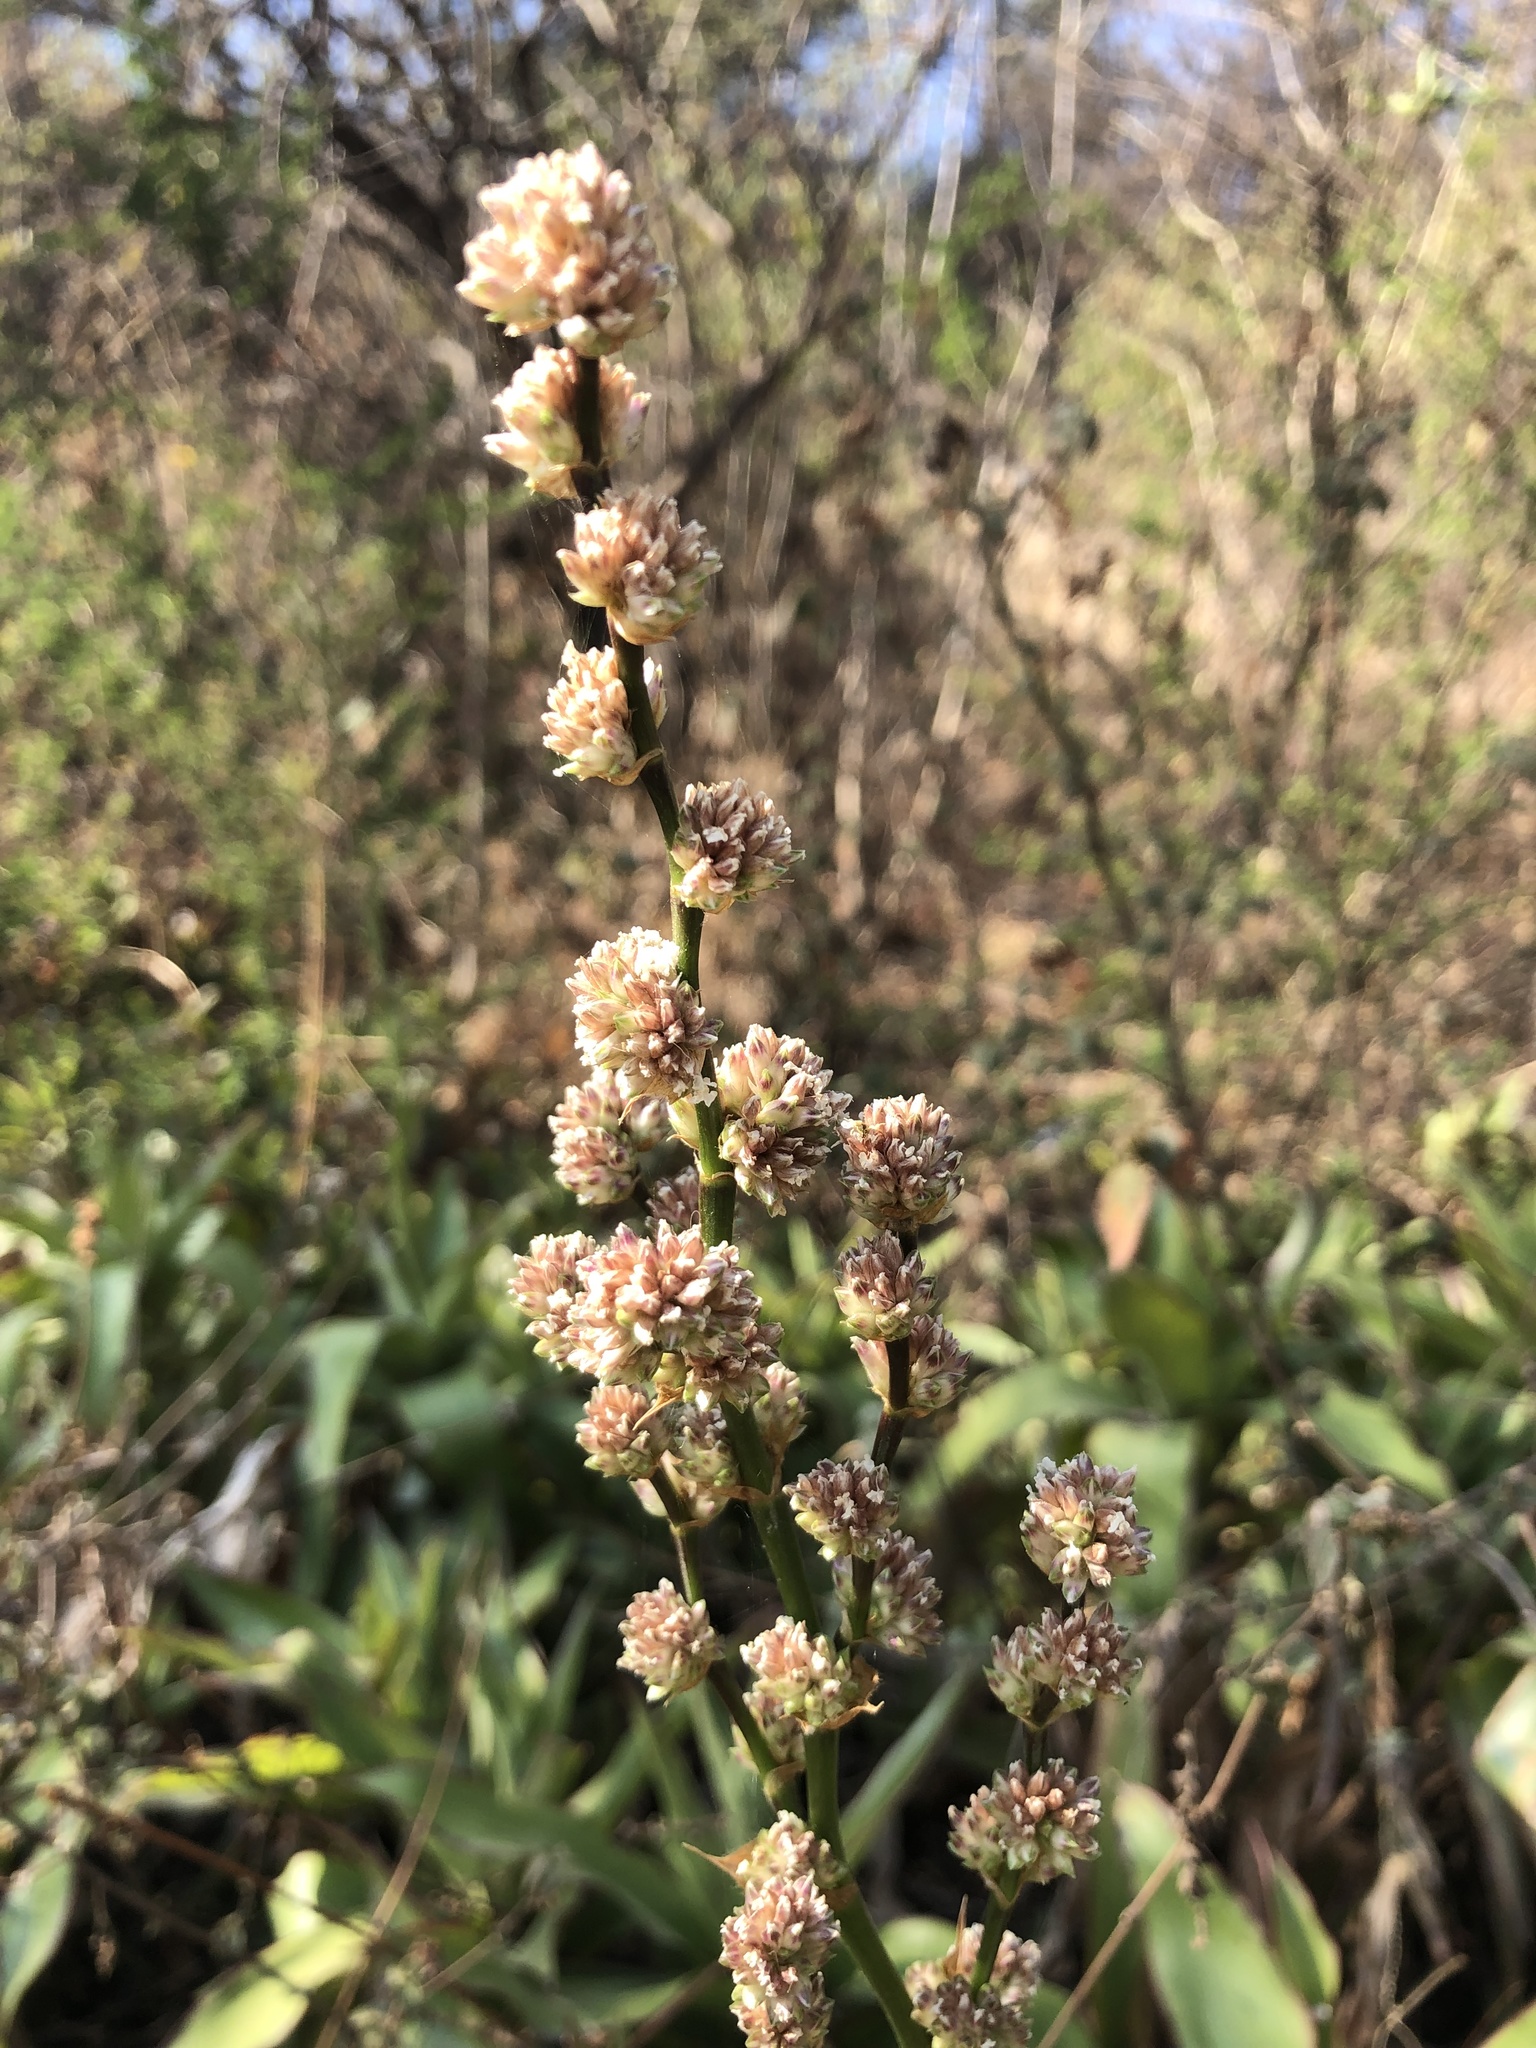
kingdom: Plantae
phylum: Tracheophyta
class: Liliopsida
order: Commelinales
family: Commelinaceae
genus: Callisia
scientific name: Callisia fragrans
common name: Basketplant
